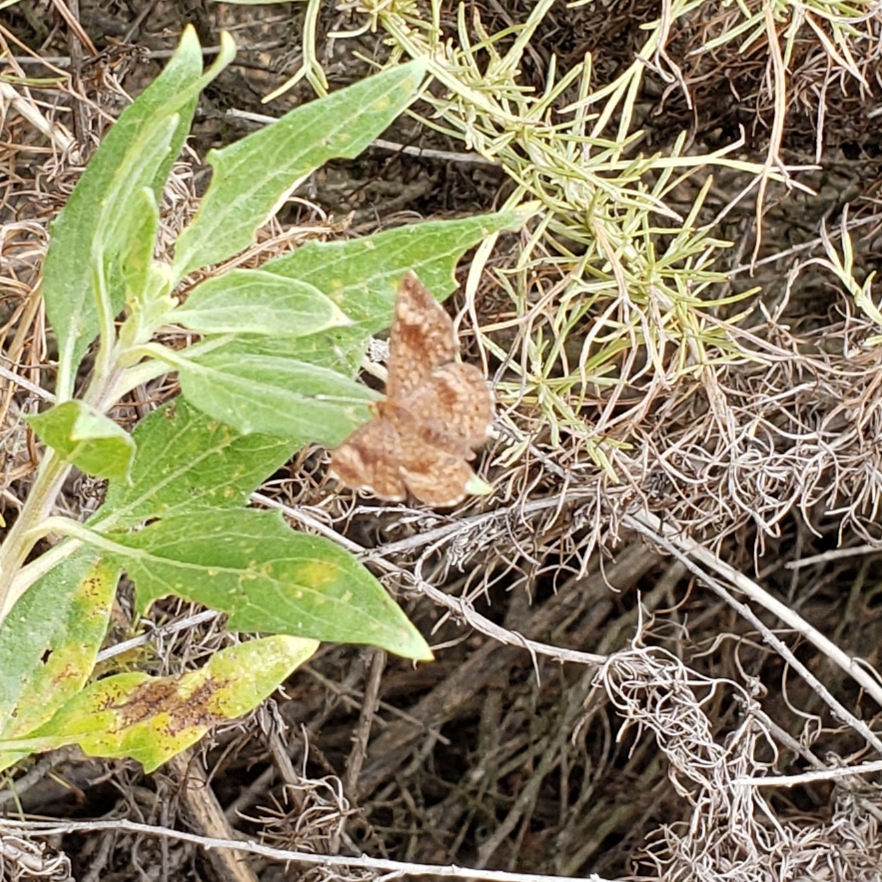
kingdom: Animalia
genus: Calephelis
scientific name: Calephelis nemesis
